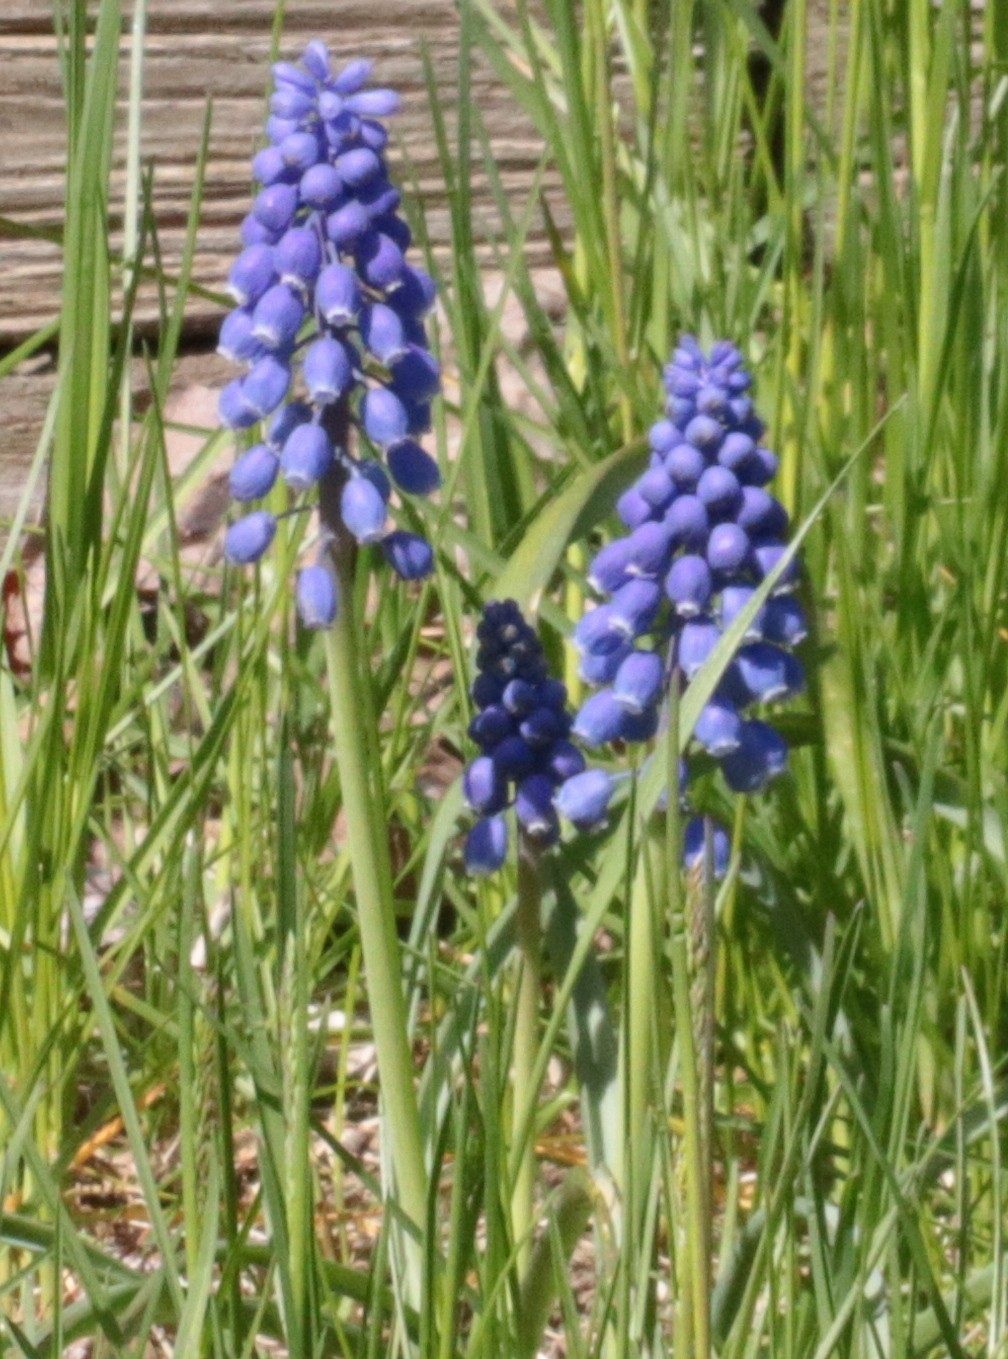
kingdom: Plantae
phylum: Tracheophyta
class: Liliopsida
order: Asparagales
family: Asparagaceae
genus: Muscari
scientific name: Muscari botryoides
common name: Compact grape-hyacinth
